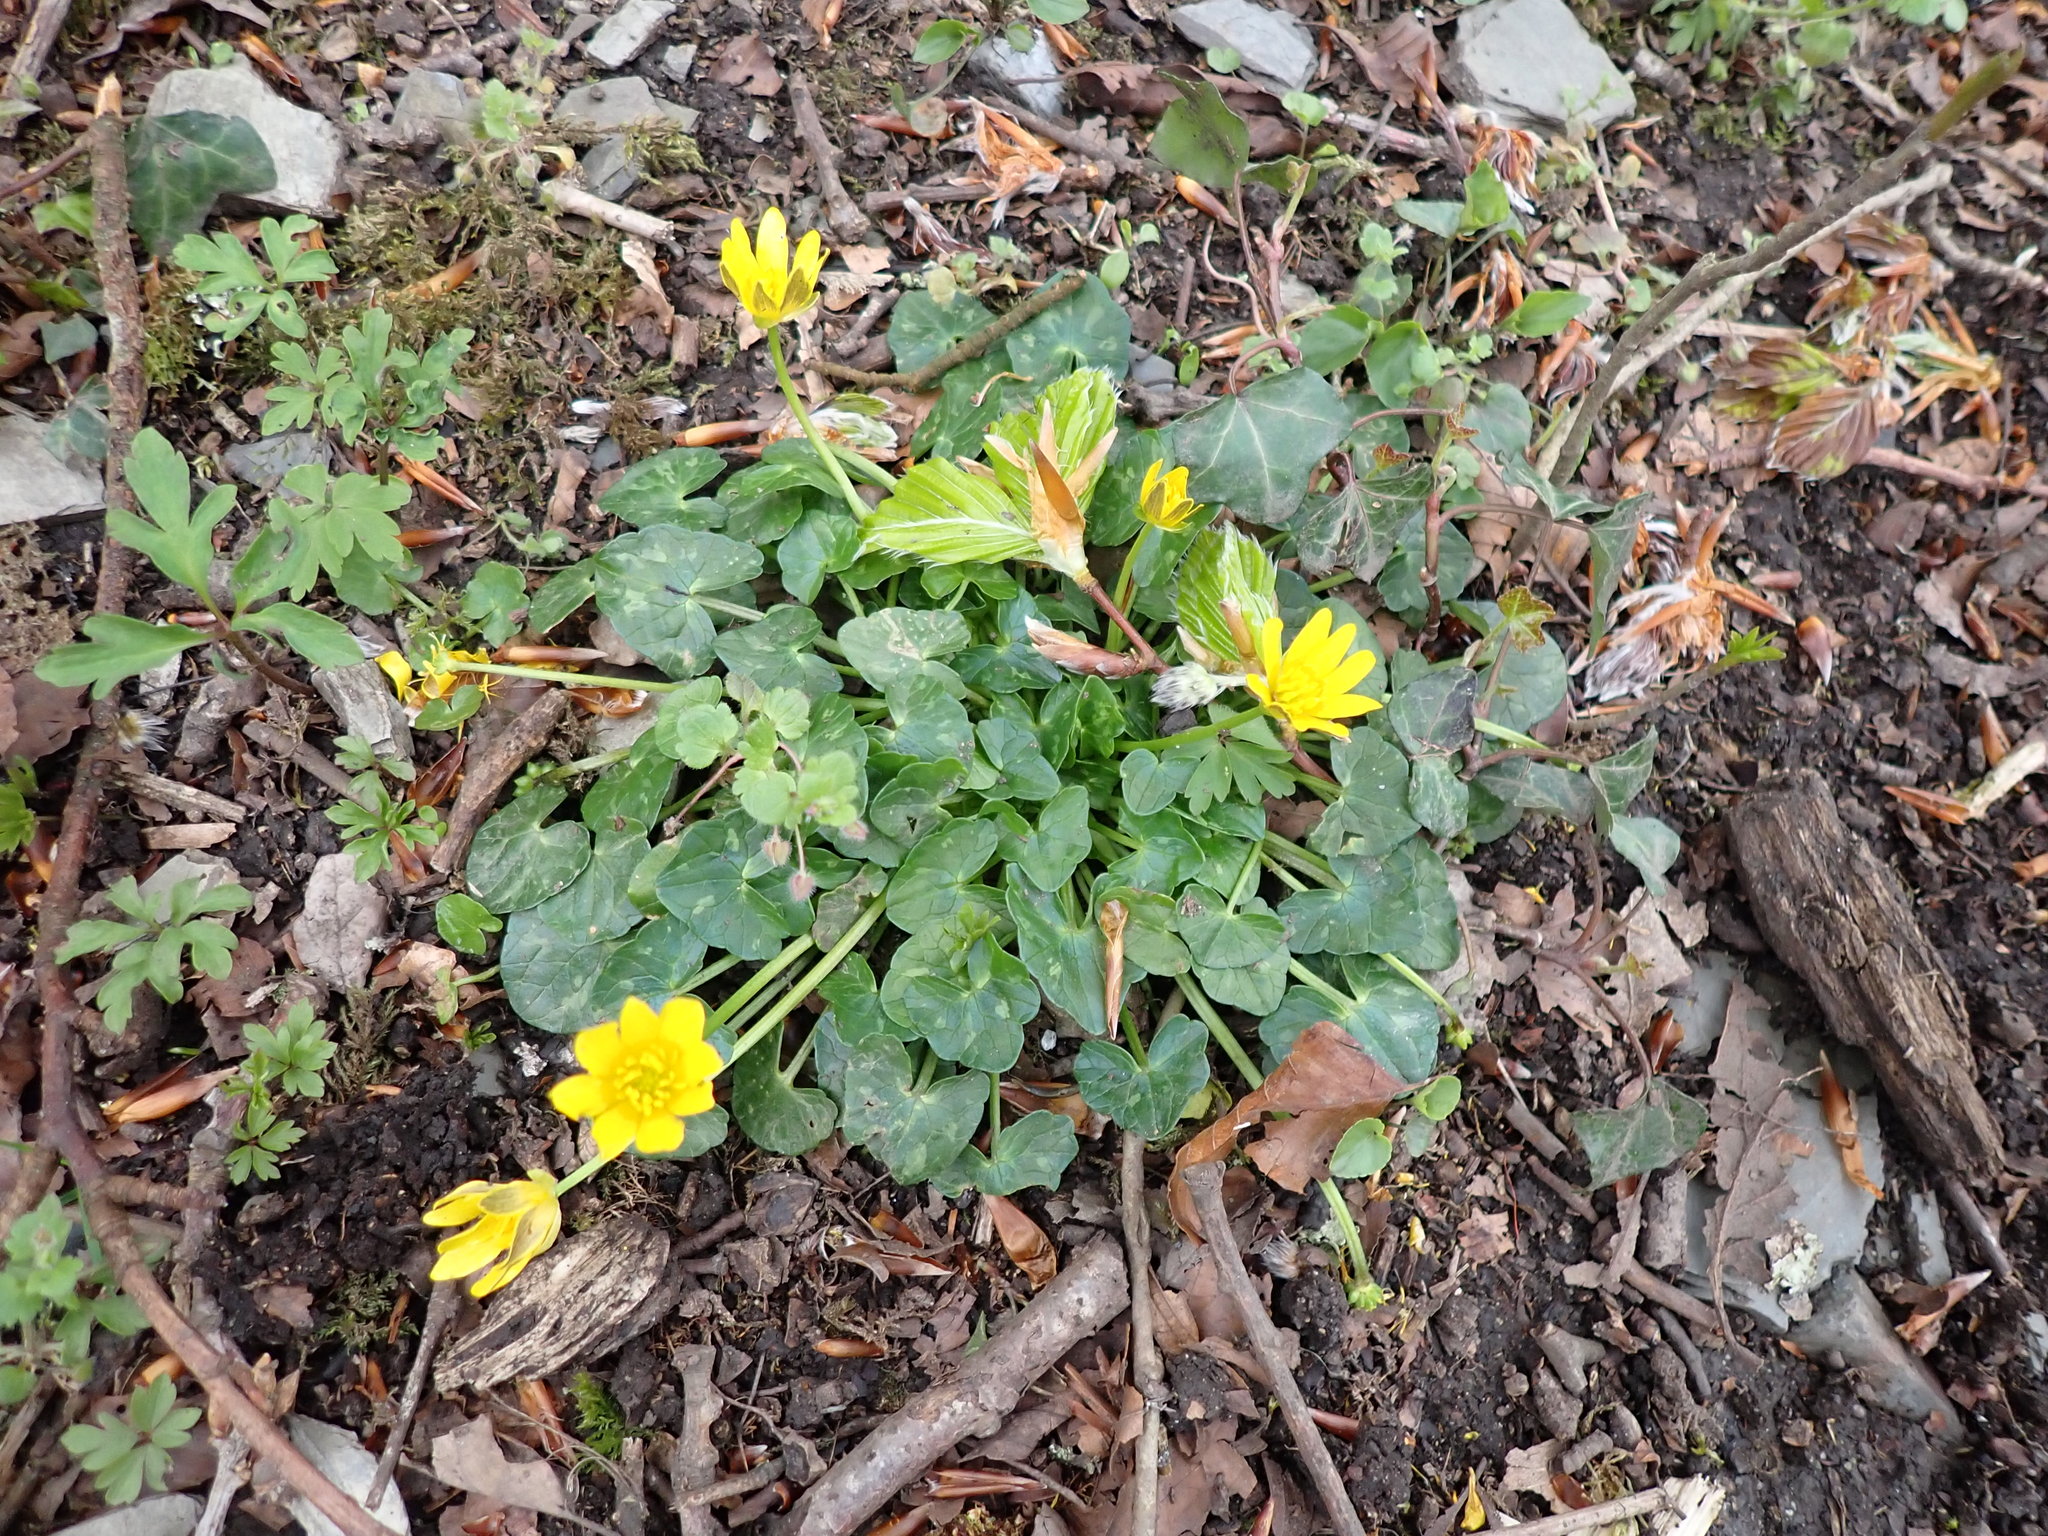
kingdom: Plantae
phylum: Tracheophyta
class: Magnoliopsida
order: Ranunculales
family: Ranunculaceae
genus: Ficaria
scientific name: Ficaria verna
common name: Lesser celandine
